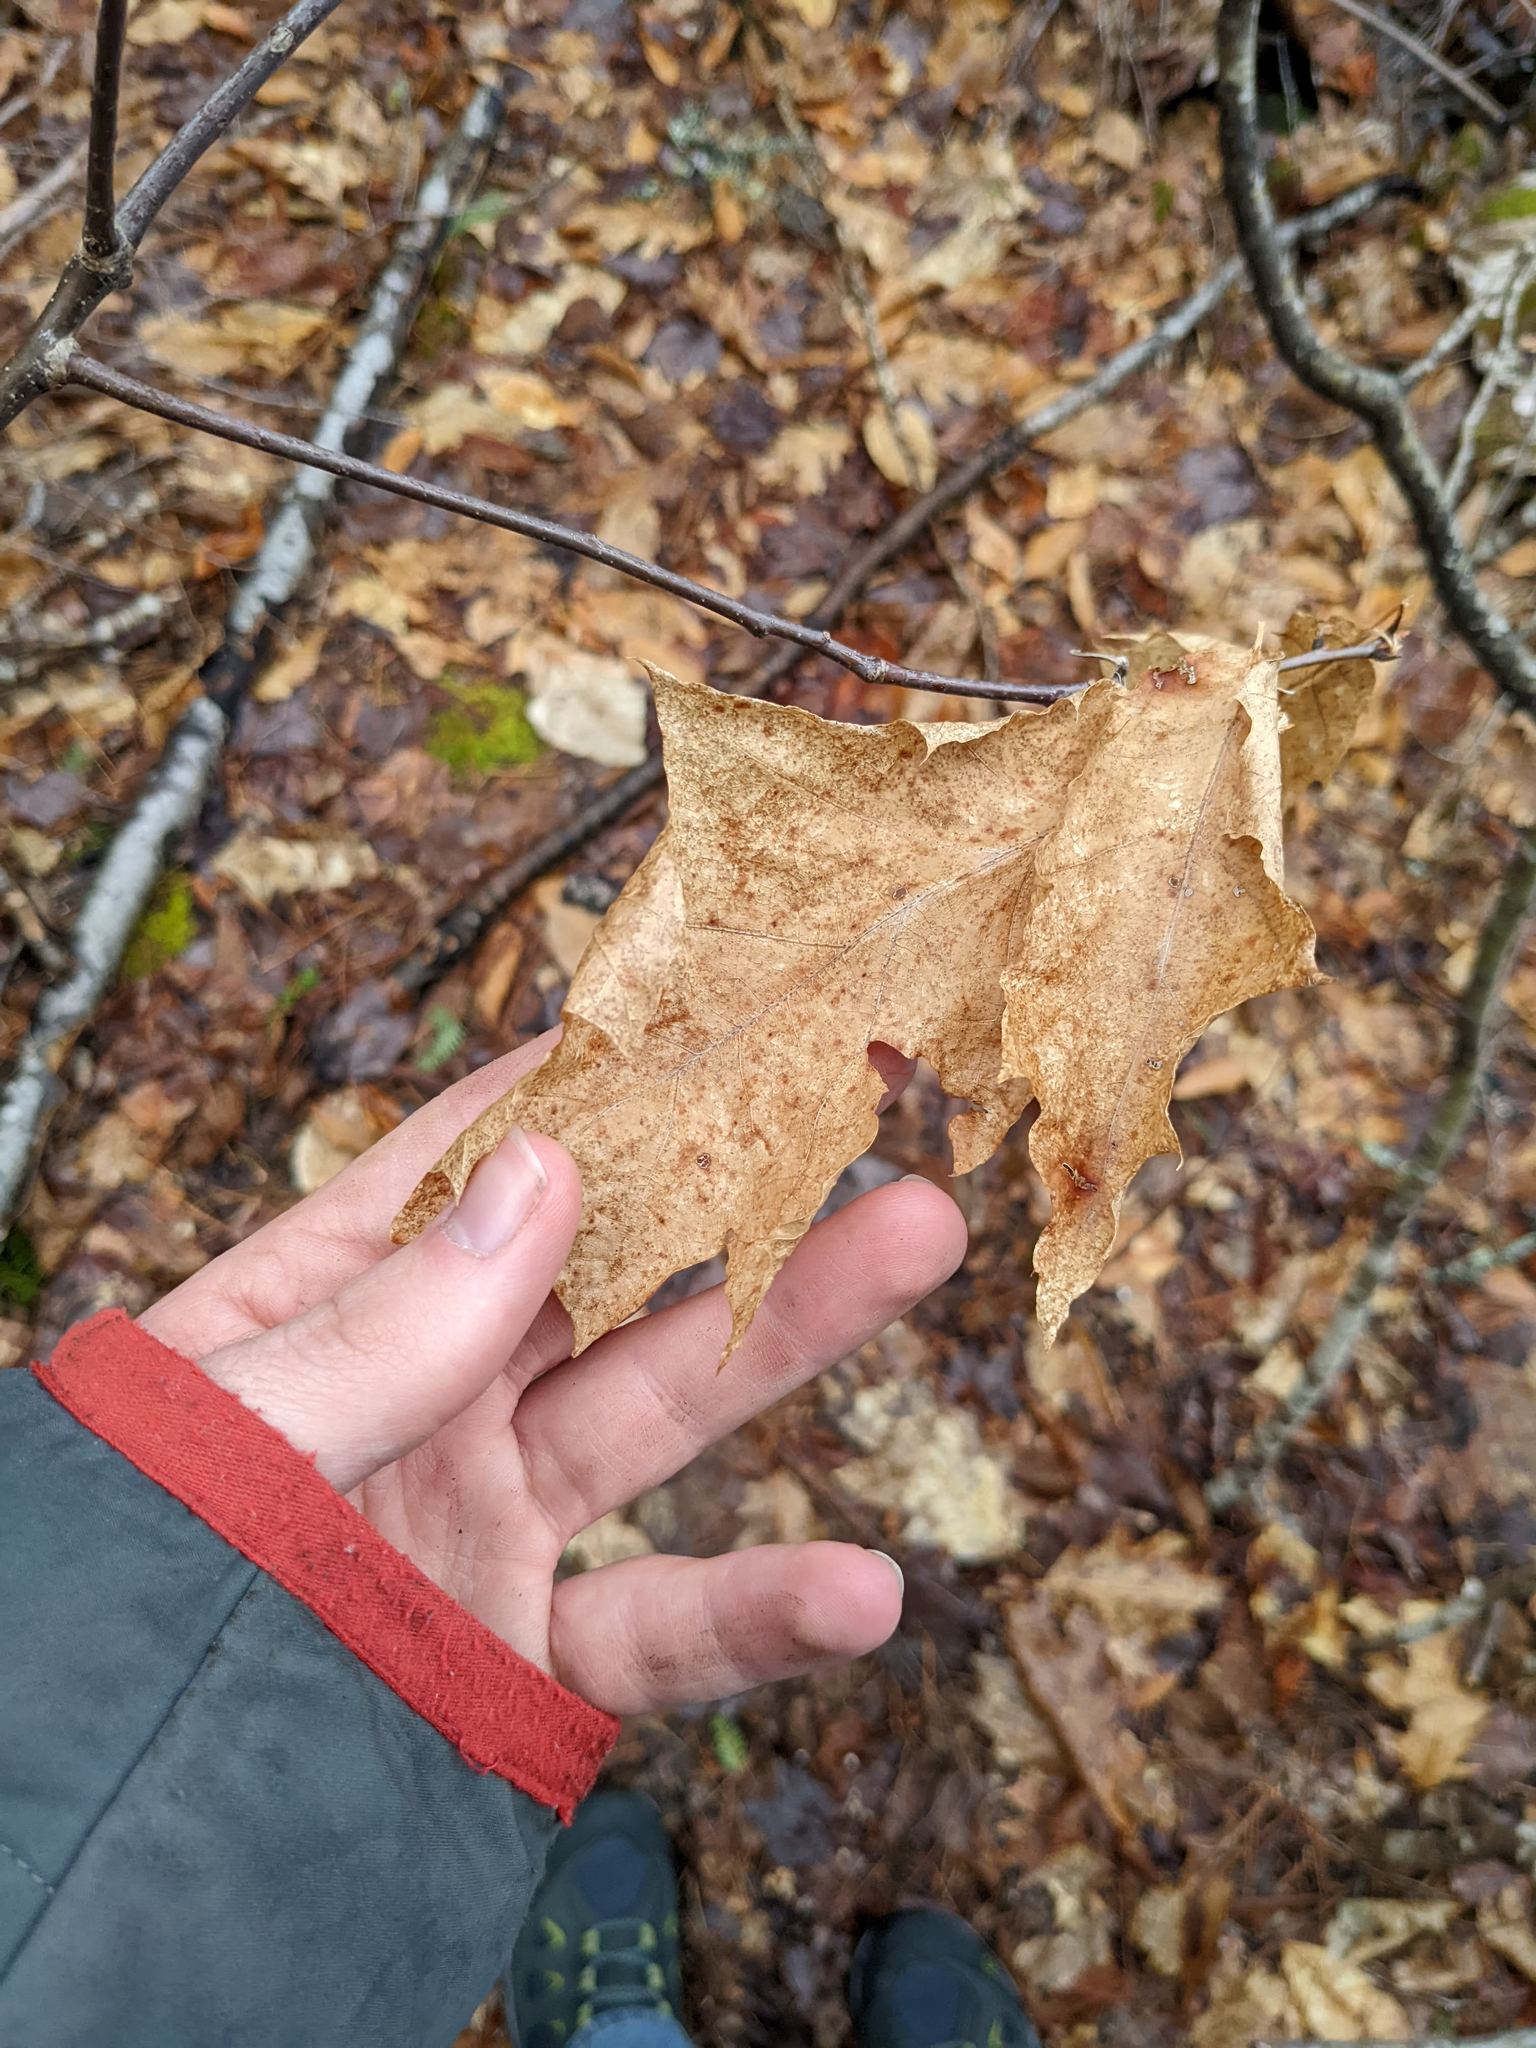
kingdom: Plantae
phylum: Tracheophyta
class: Magnoliopsida
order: Fagales
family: Fagaceae
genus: Quercus
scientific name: Quercus rubra
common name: Red oak
